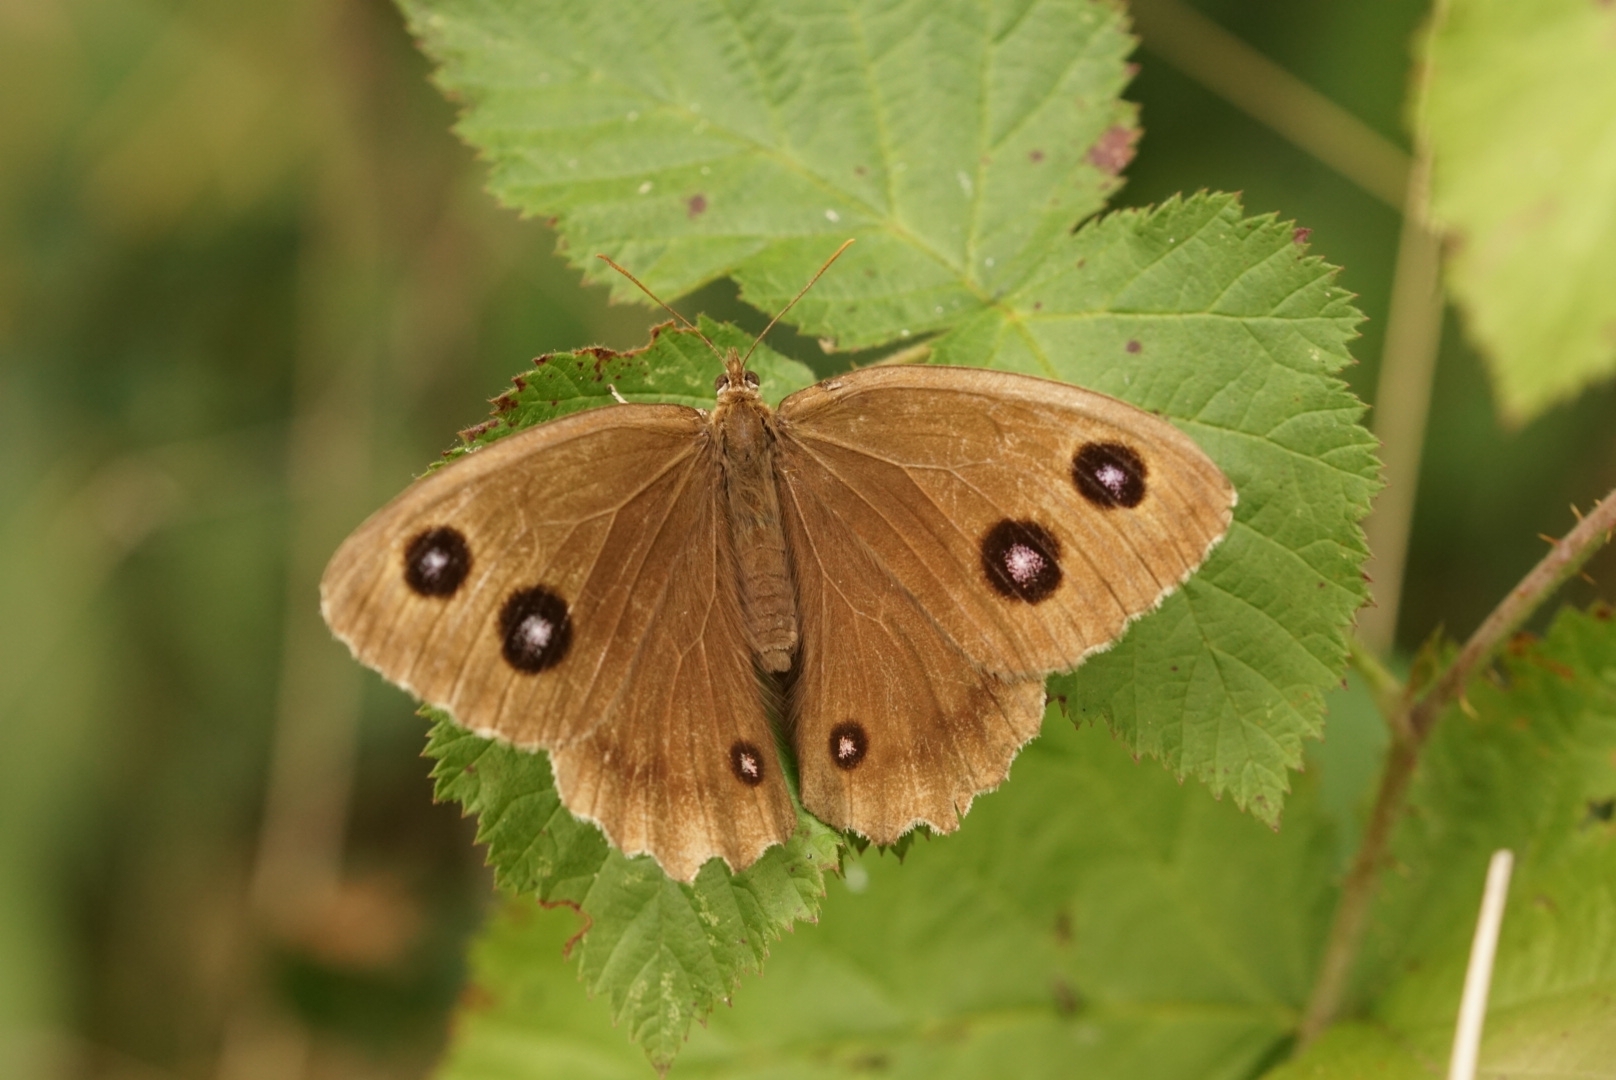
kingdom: Animalia
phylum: Arthropoda
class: Insecta
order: Lepidoptera
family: Nymphalidae
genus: Minois
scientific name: Minois dryas
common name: Dryad
